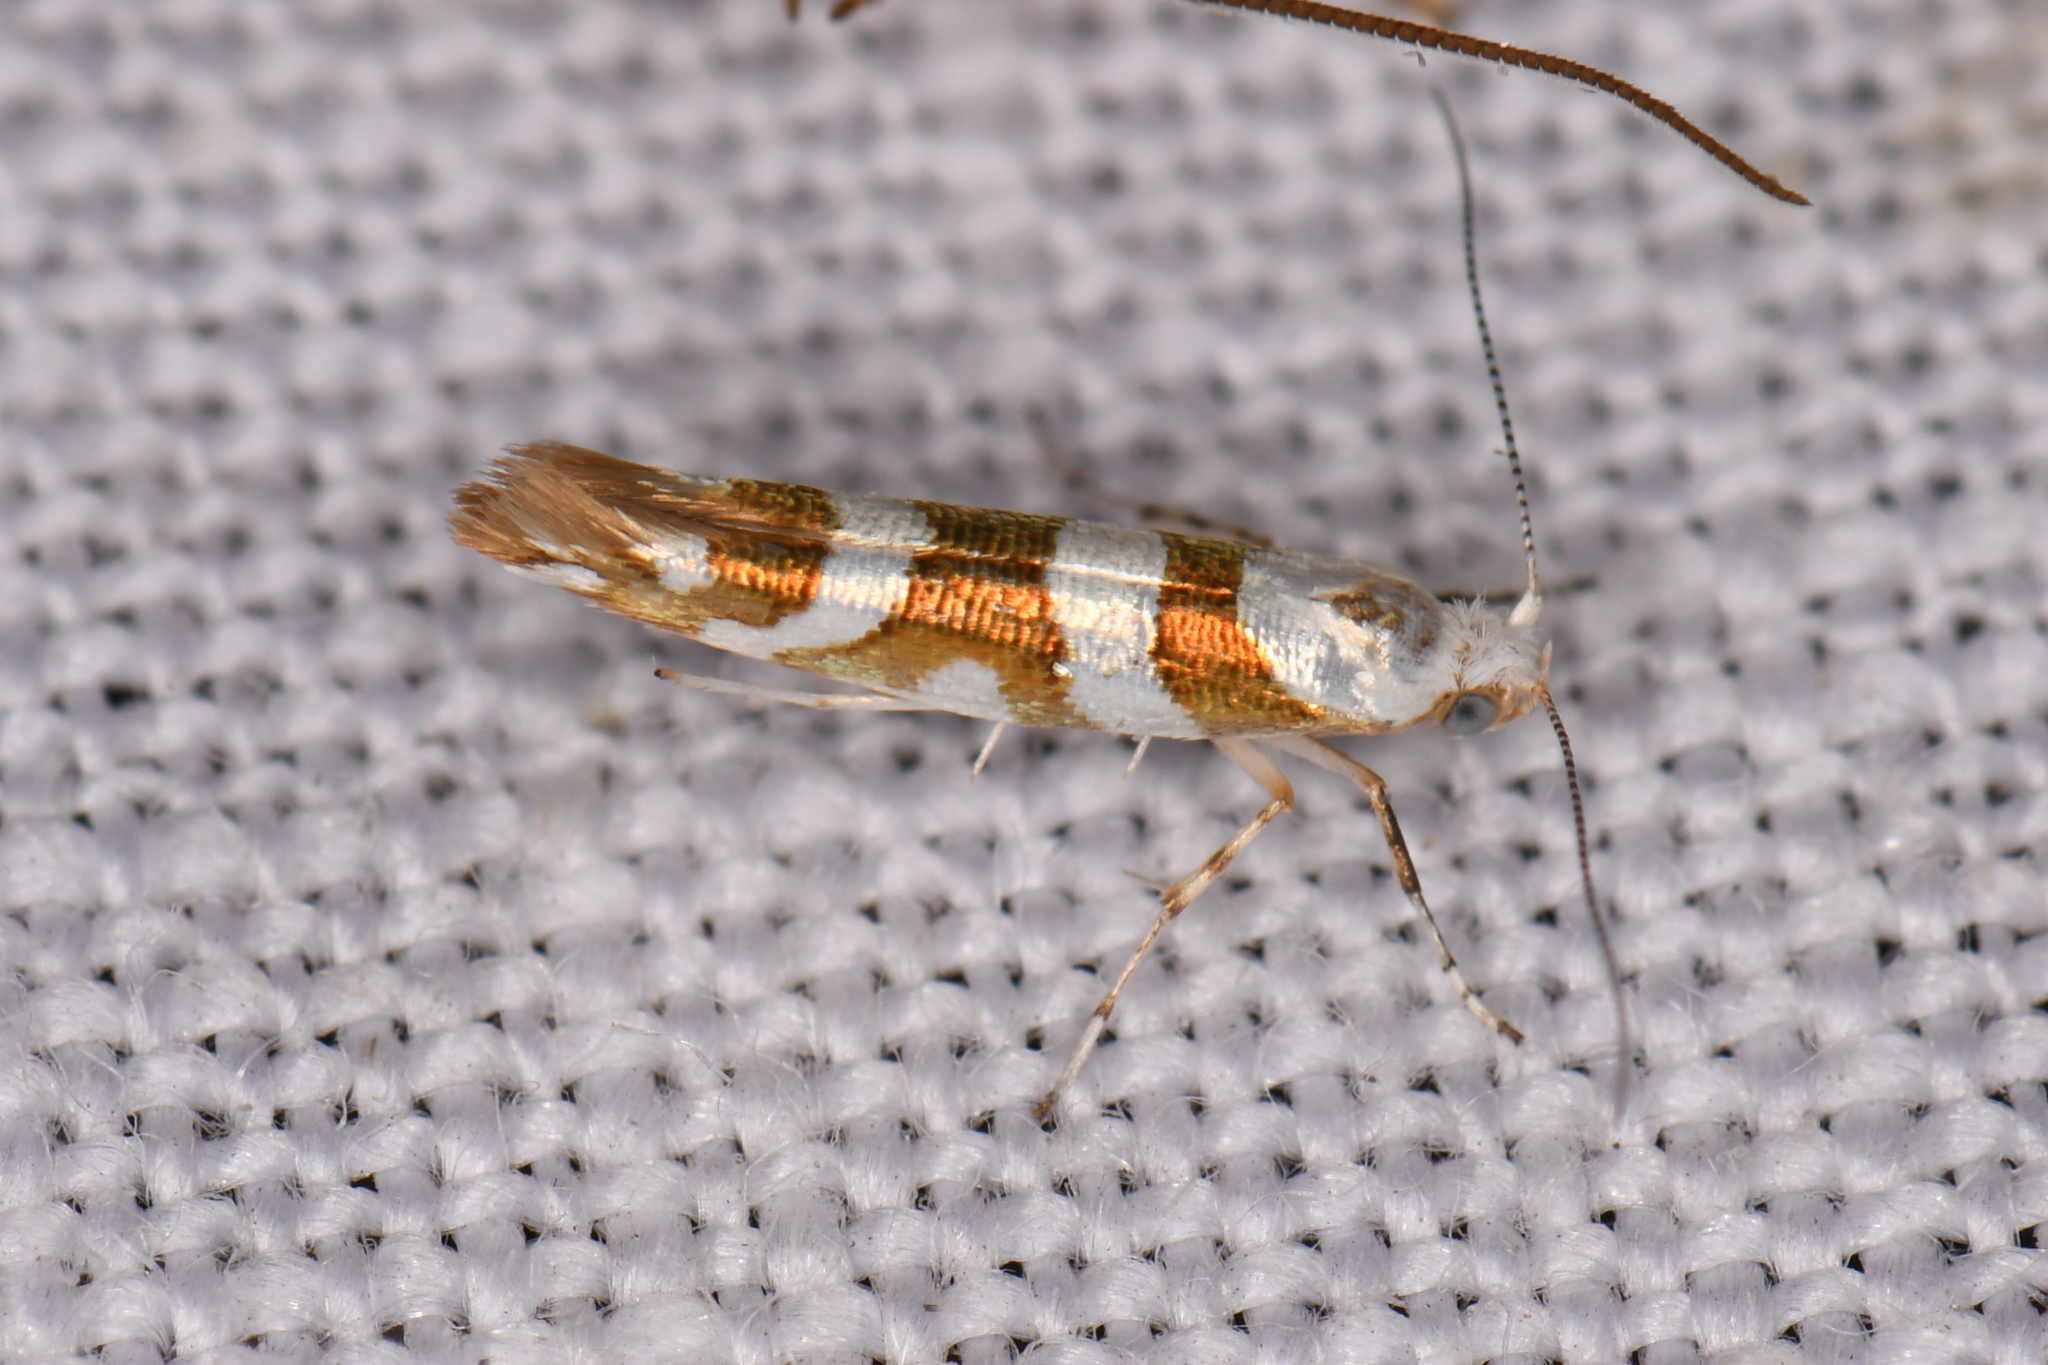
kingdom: Animalia
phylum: Arthropoda
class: Insecta
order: Lepidoptera
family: Argyresthiidae
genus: Argyresthia
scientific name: Argyresthia calliphanes
